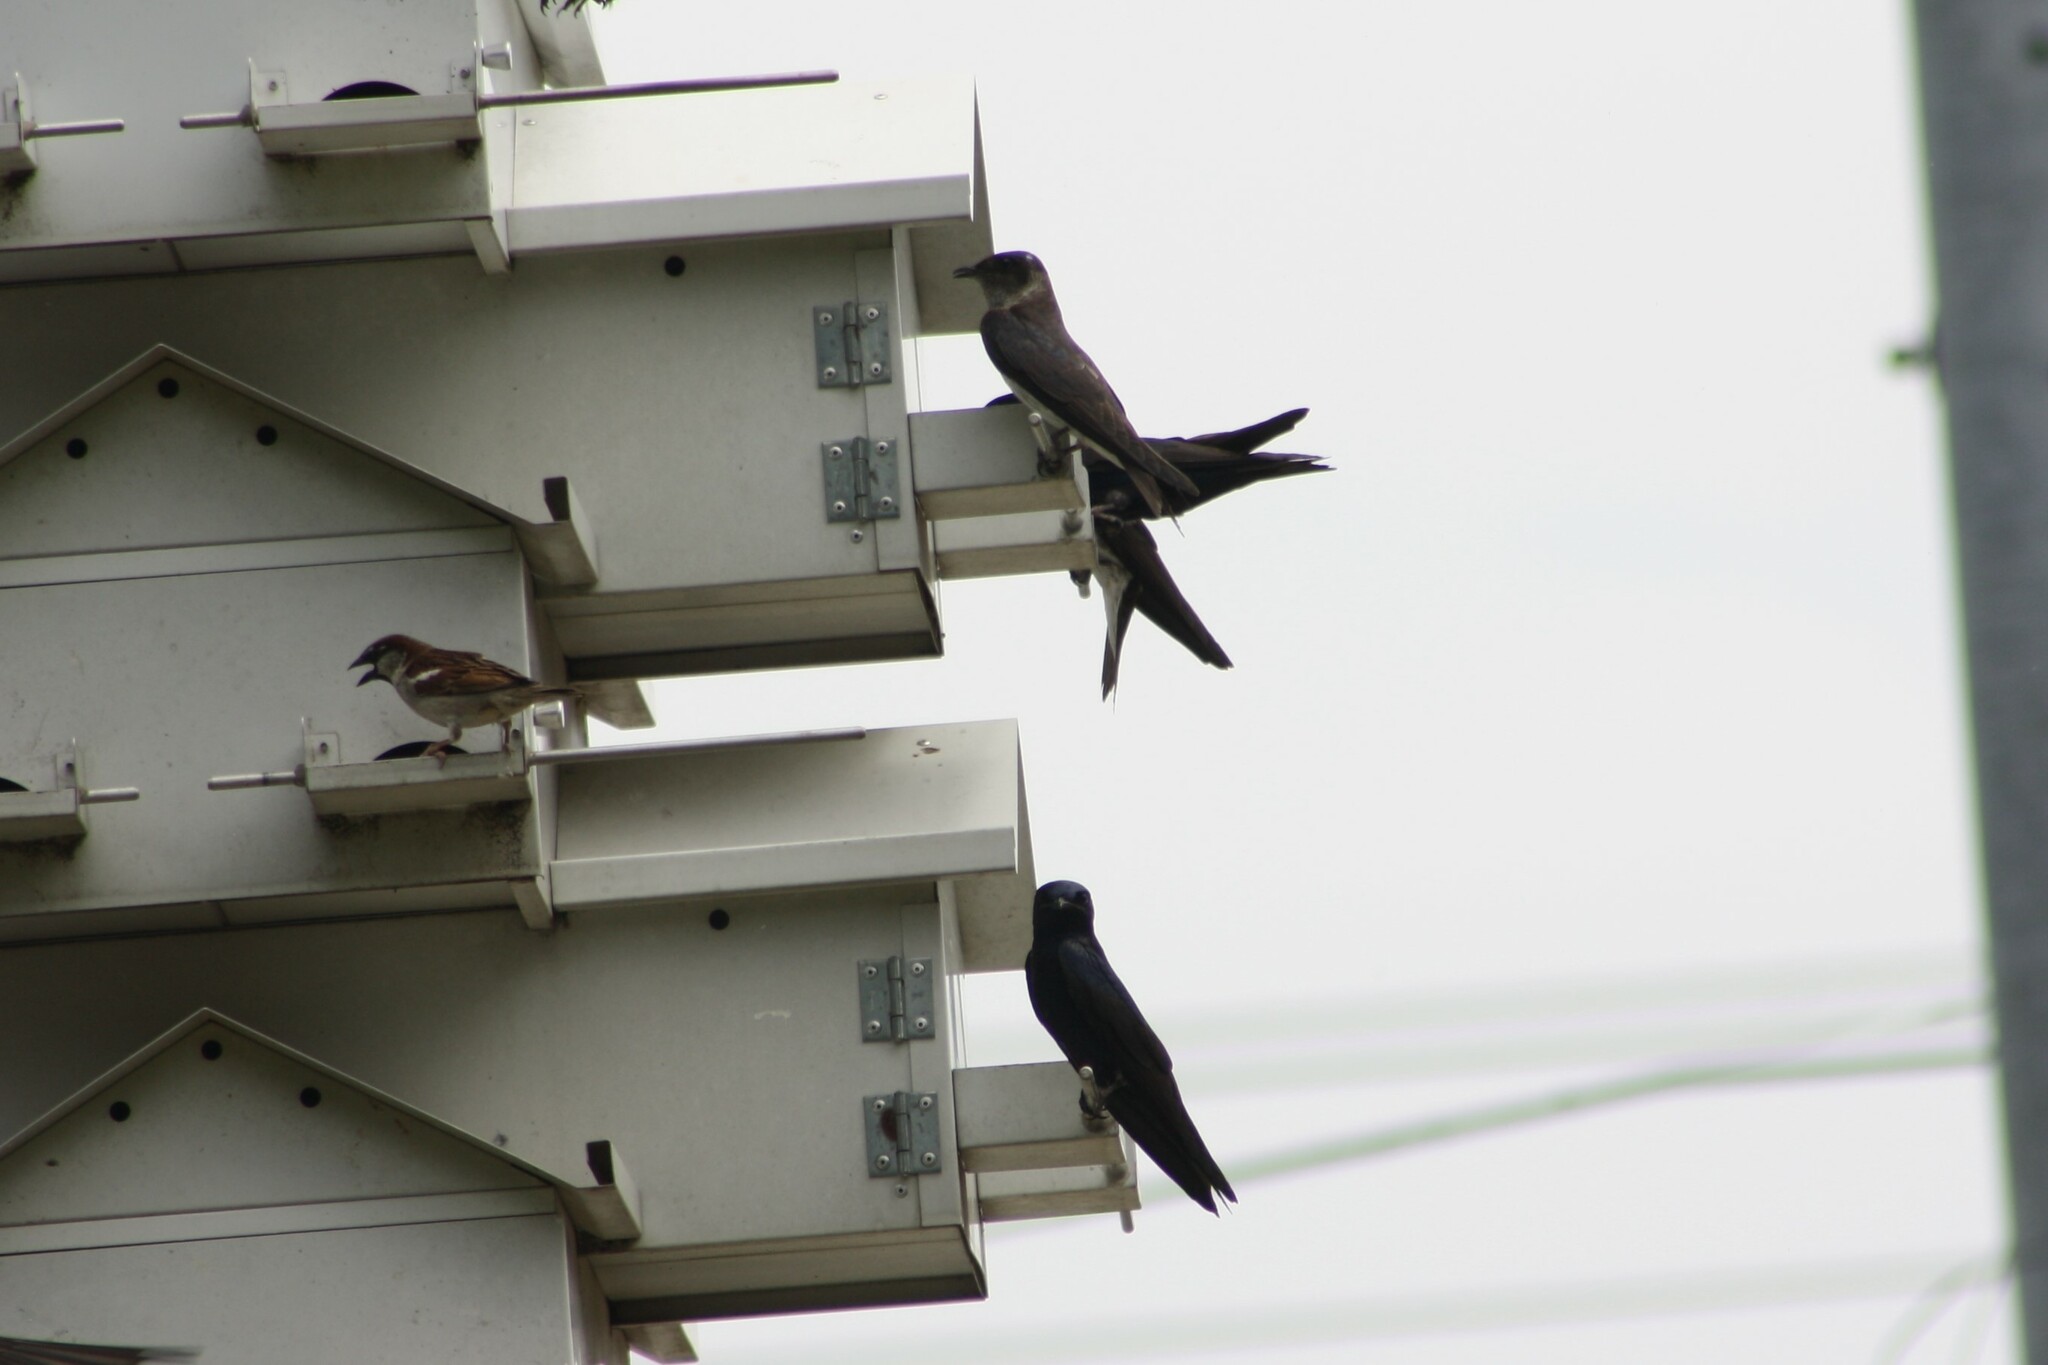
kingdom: Animalia
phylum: Chordata
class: Aves
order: Passeriformes
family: Hirundinidae
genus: Progne
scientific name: Progne subis
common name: Purple martin
